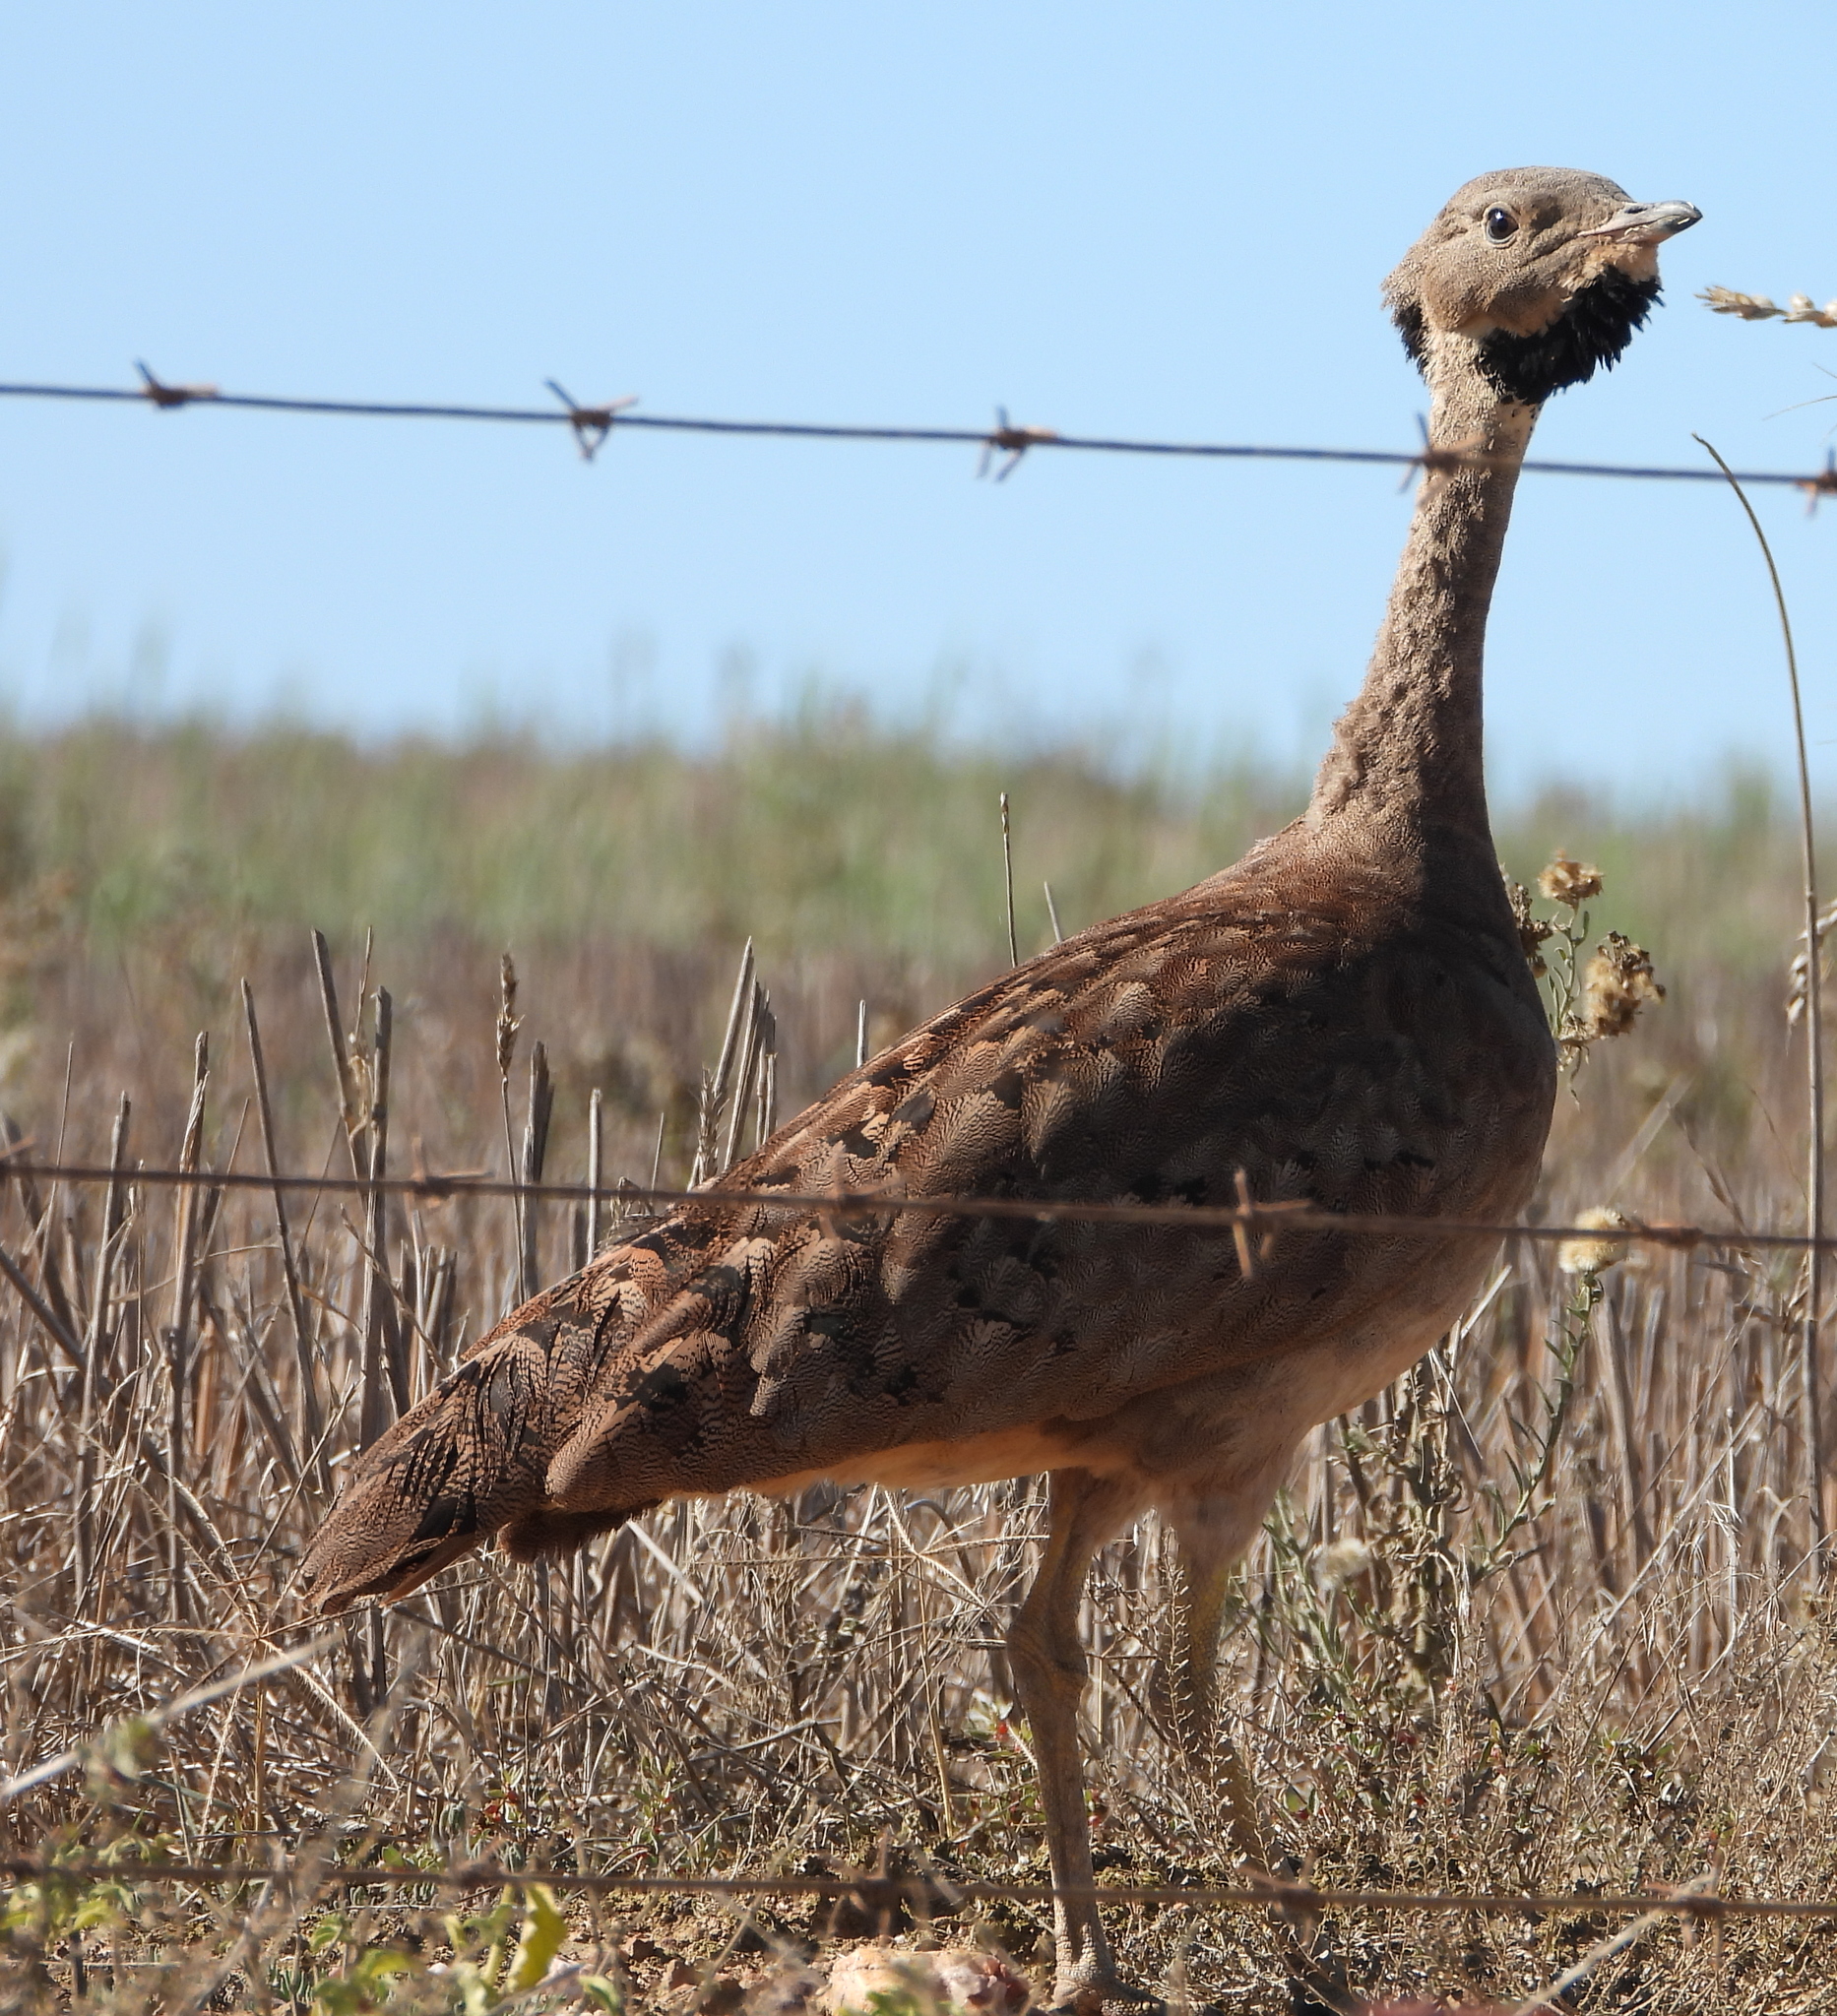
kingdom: Animalia
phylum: Chordata
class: Aves
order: Otidiformes
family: Otididae
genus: Eupodotis
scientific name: Eupodotis vigorsii
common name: Karoo korhaan
